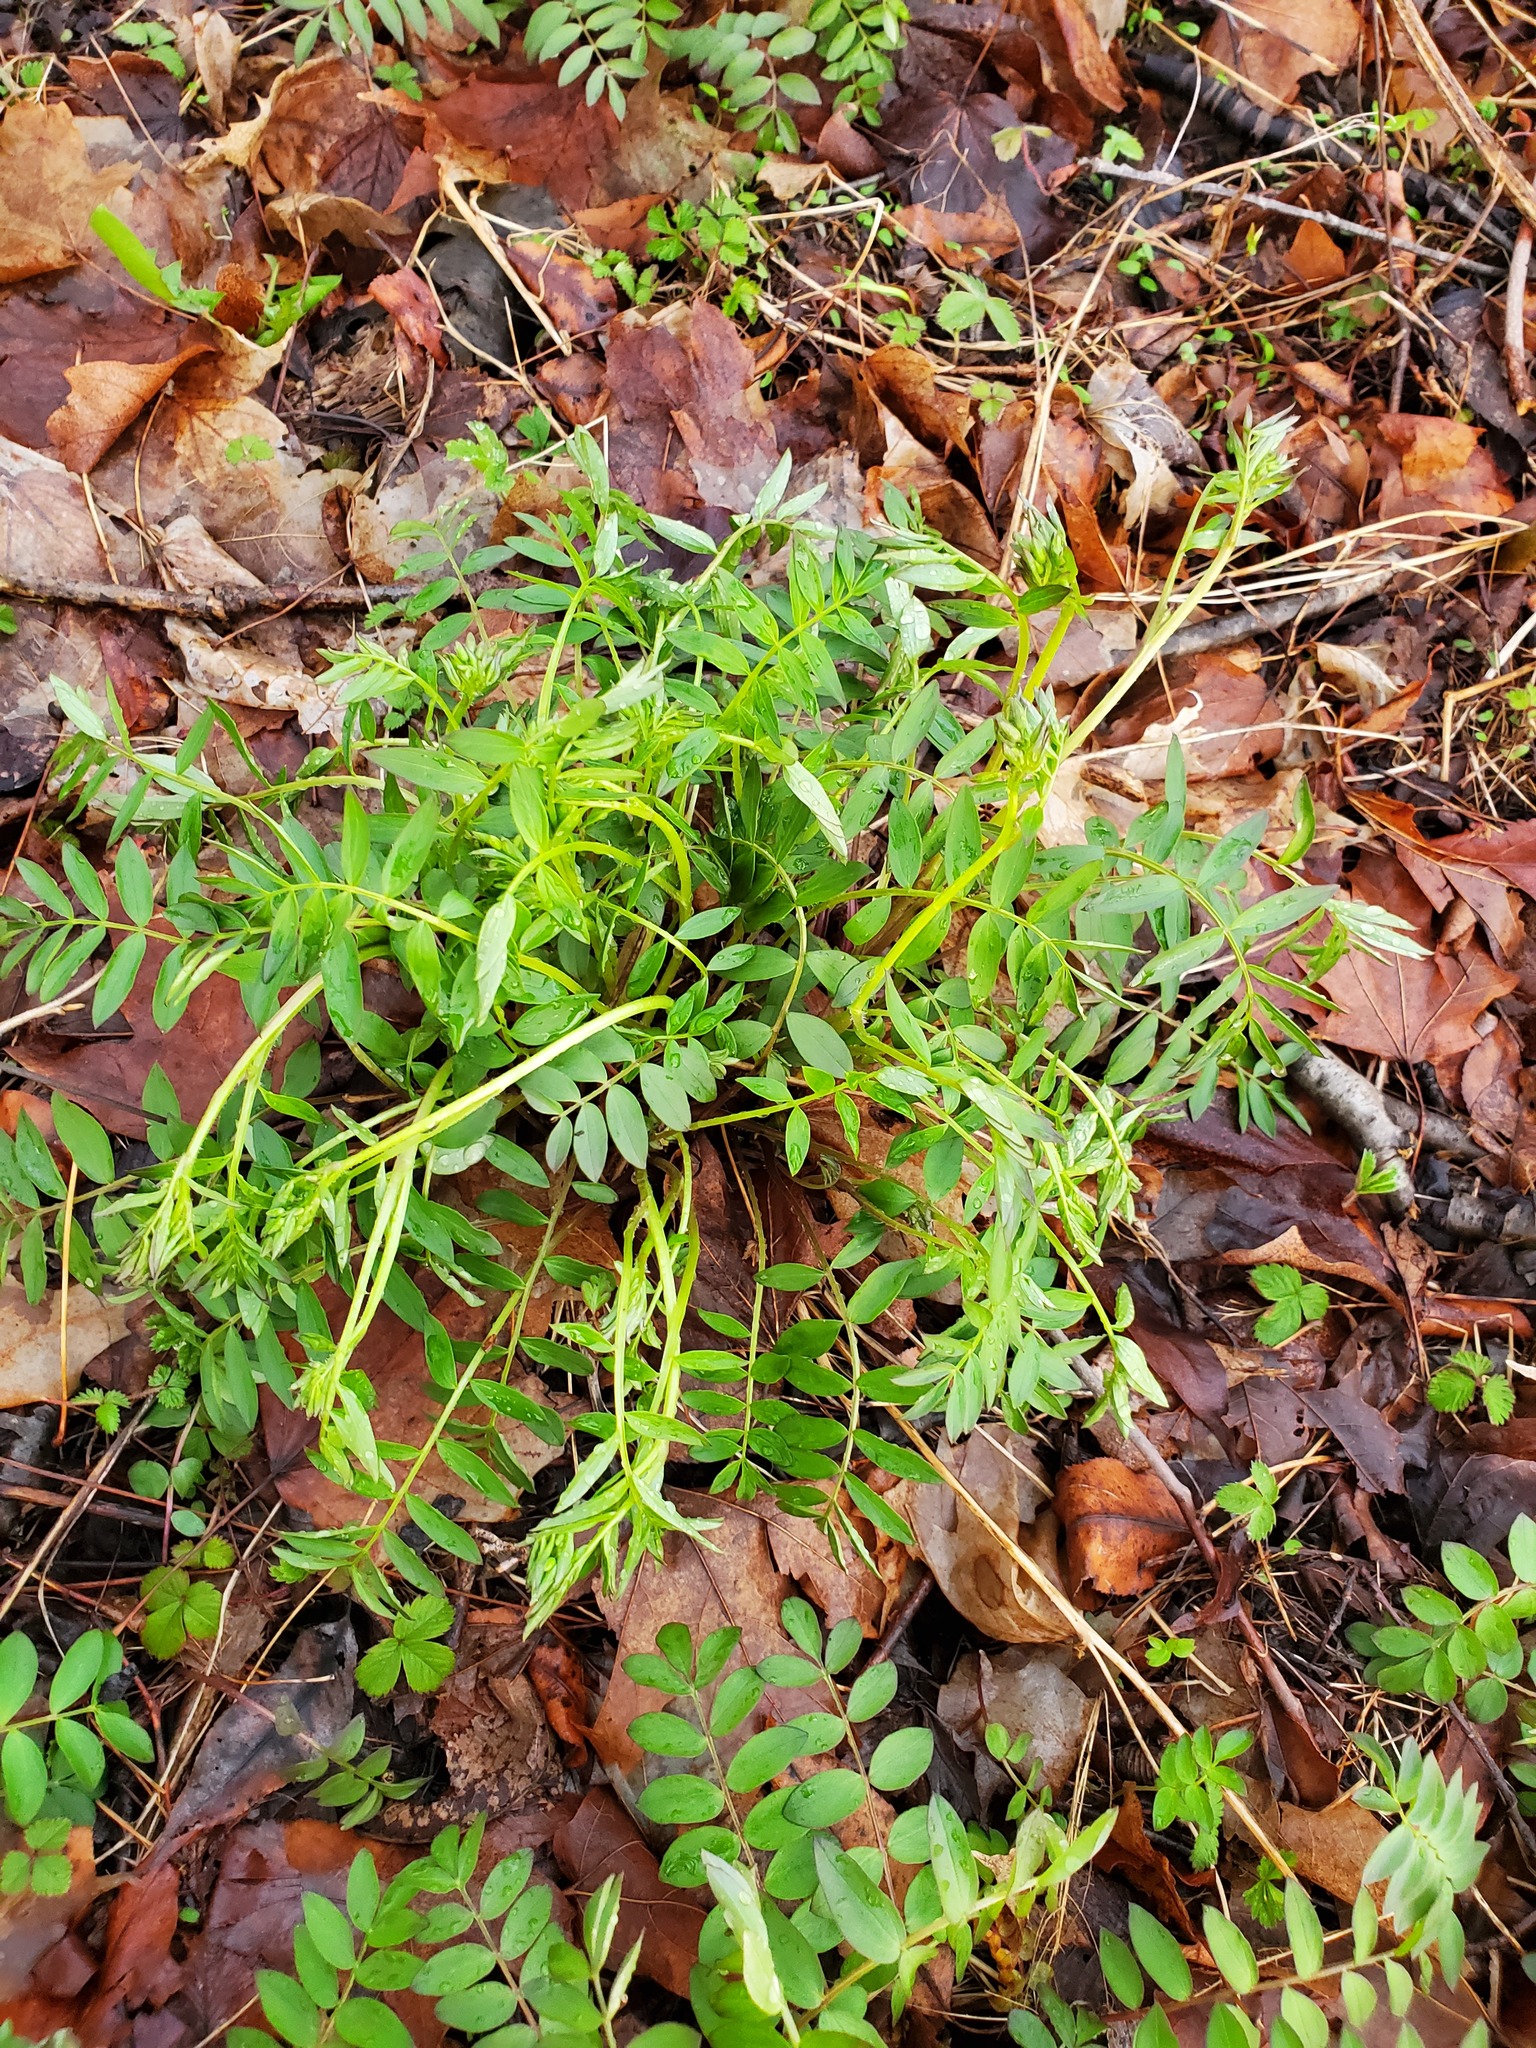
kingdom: Plantae
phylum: Tracheophyta
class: Magnoliopsida
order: Ericales
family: Polemoniaceae
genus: Polemonium
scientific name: Polemonium reptans
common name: Creeping jacob's-ladder
